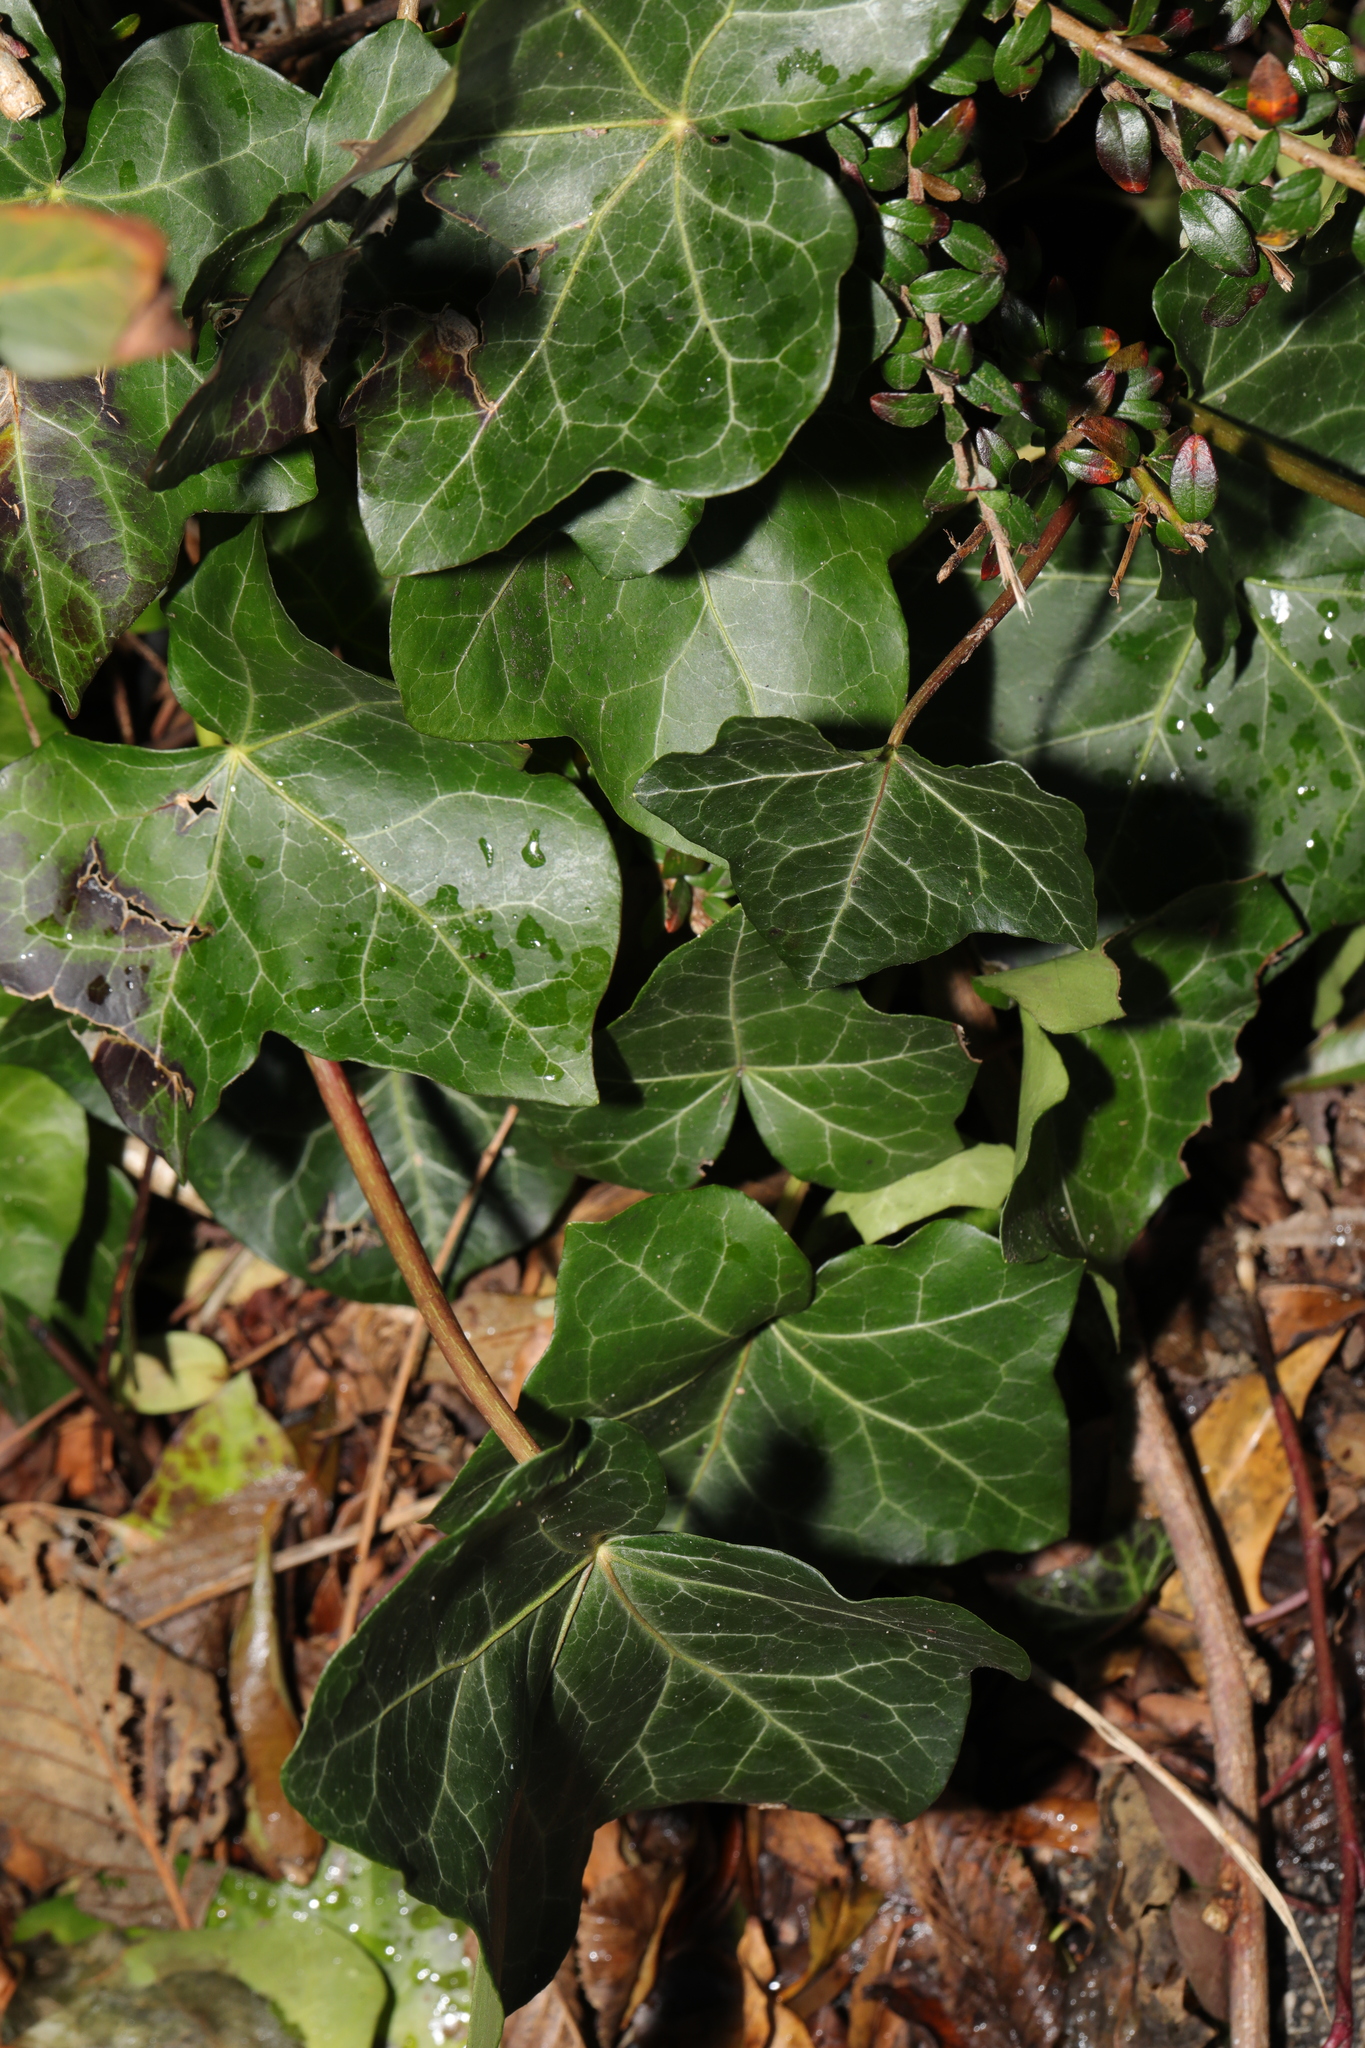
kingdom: Plantae
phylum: Tracheophyta
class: Magnoliopsida
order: Apiales
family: Araliaceae
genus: Hedera
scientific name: Hedera helix
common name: Ivy
